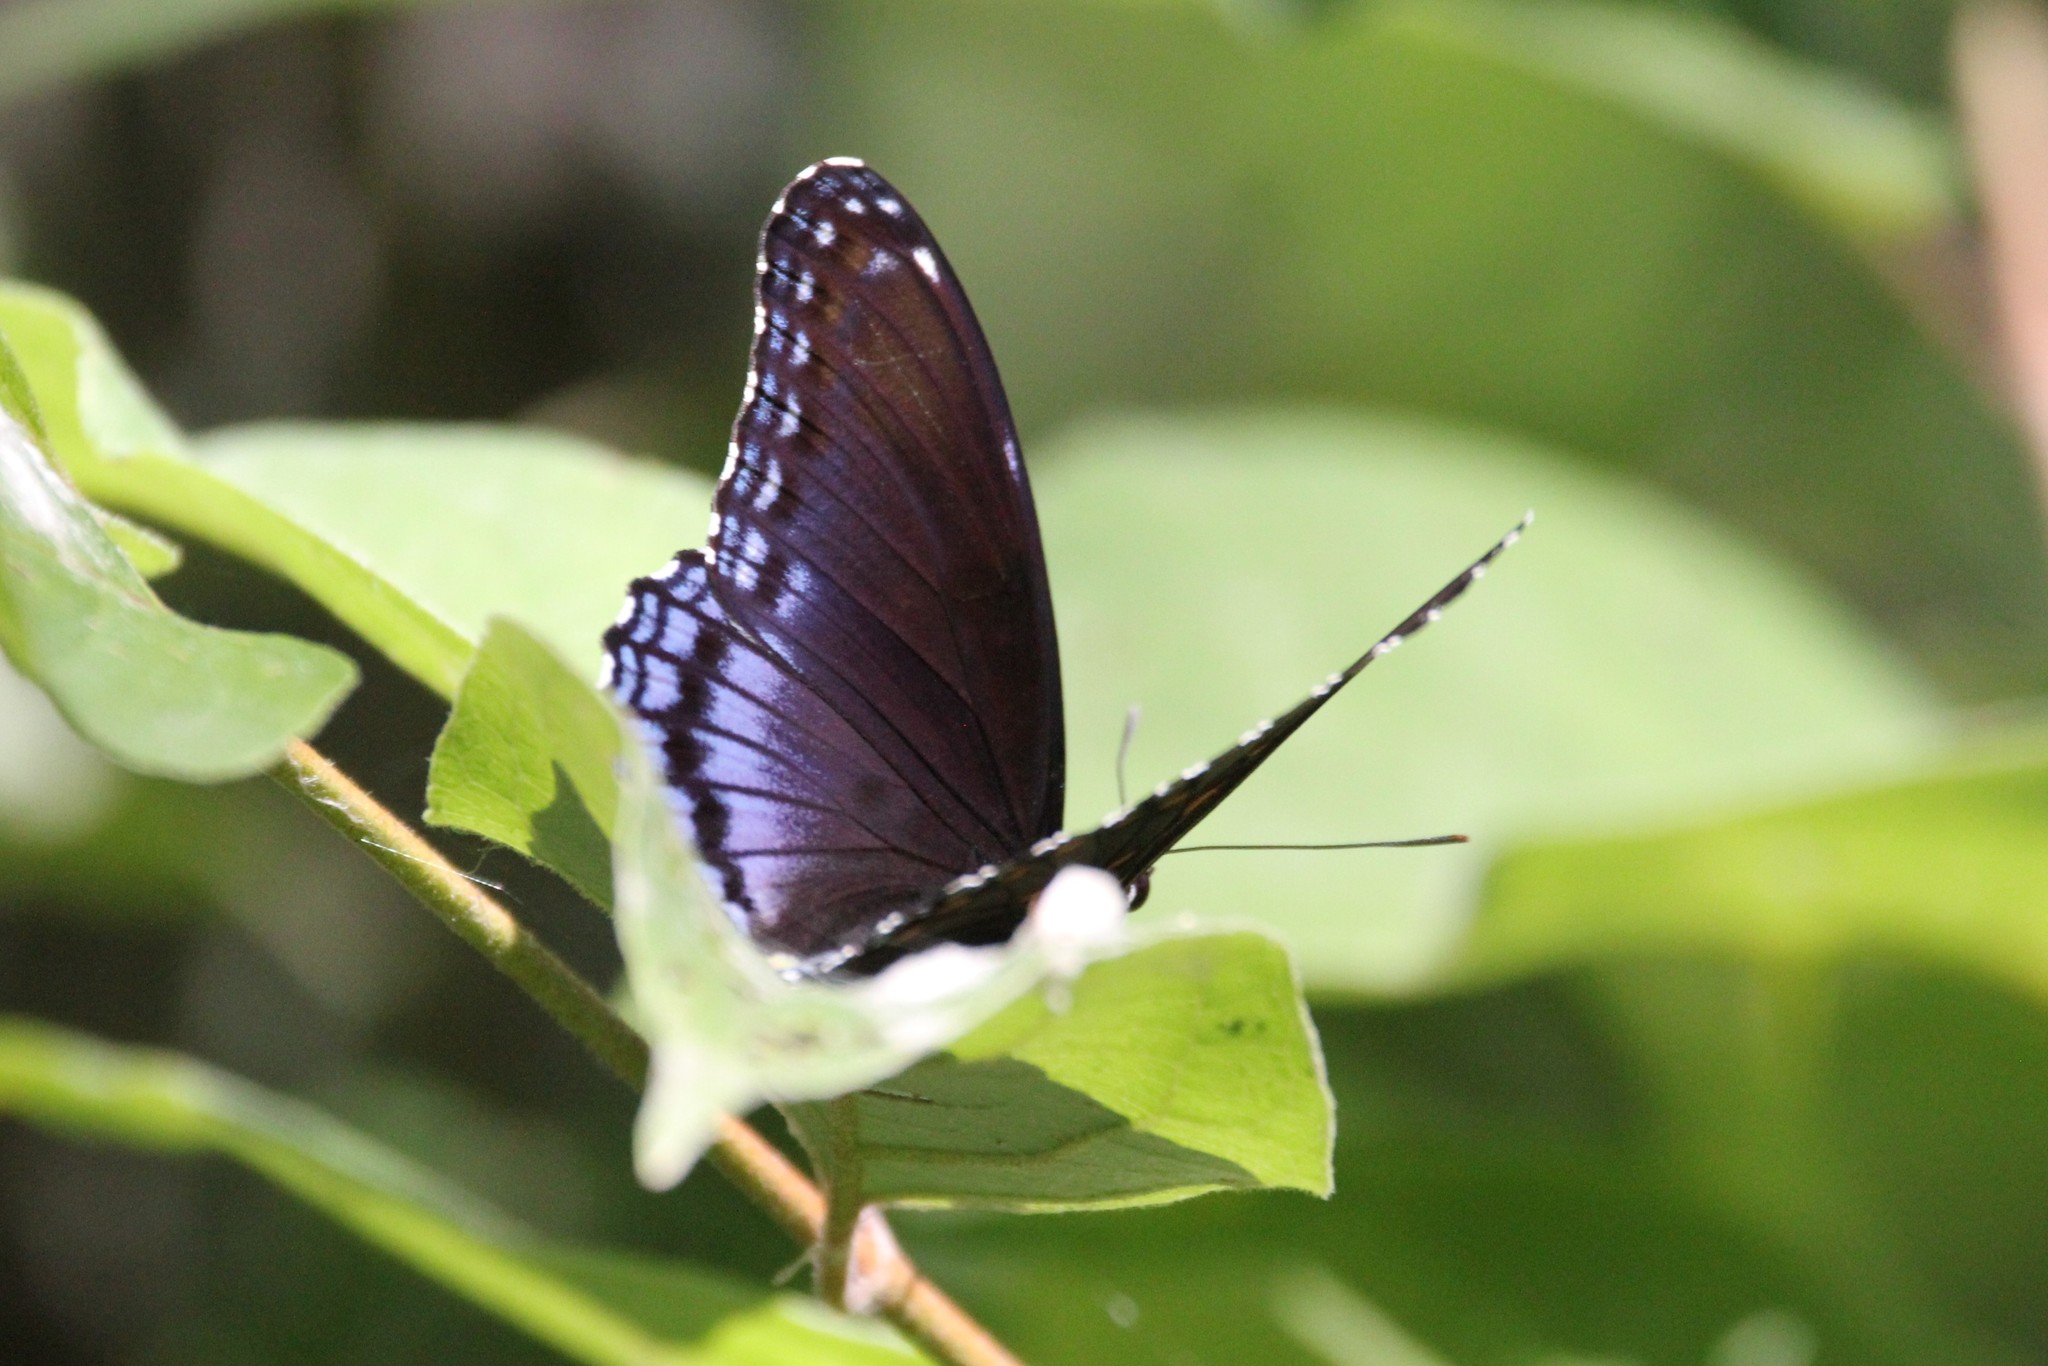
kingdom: Animalia
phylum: Arthropoda
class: Insecta
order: Lepidoptera
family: Nymphalidae
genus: Limenitis
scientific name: Limenitis astyanax
